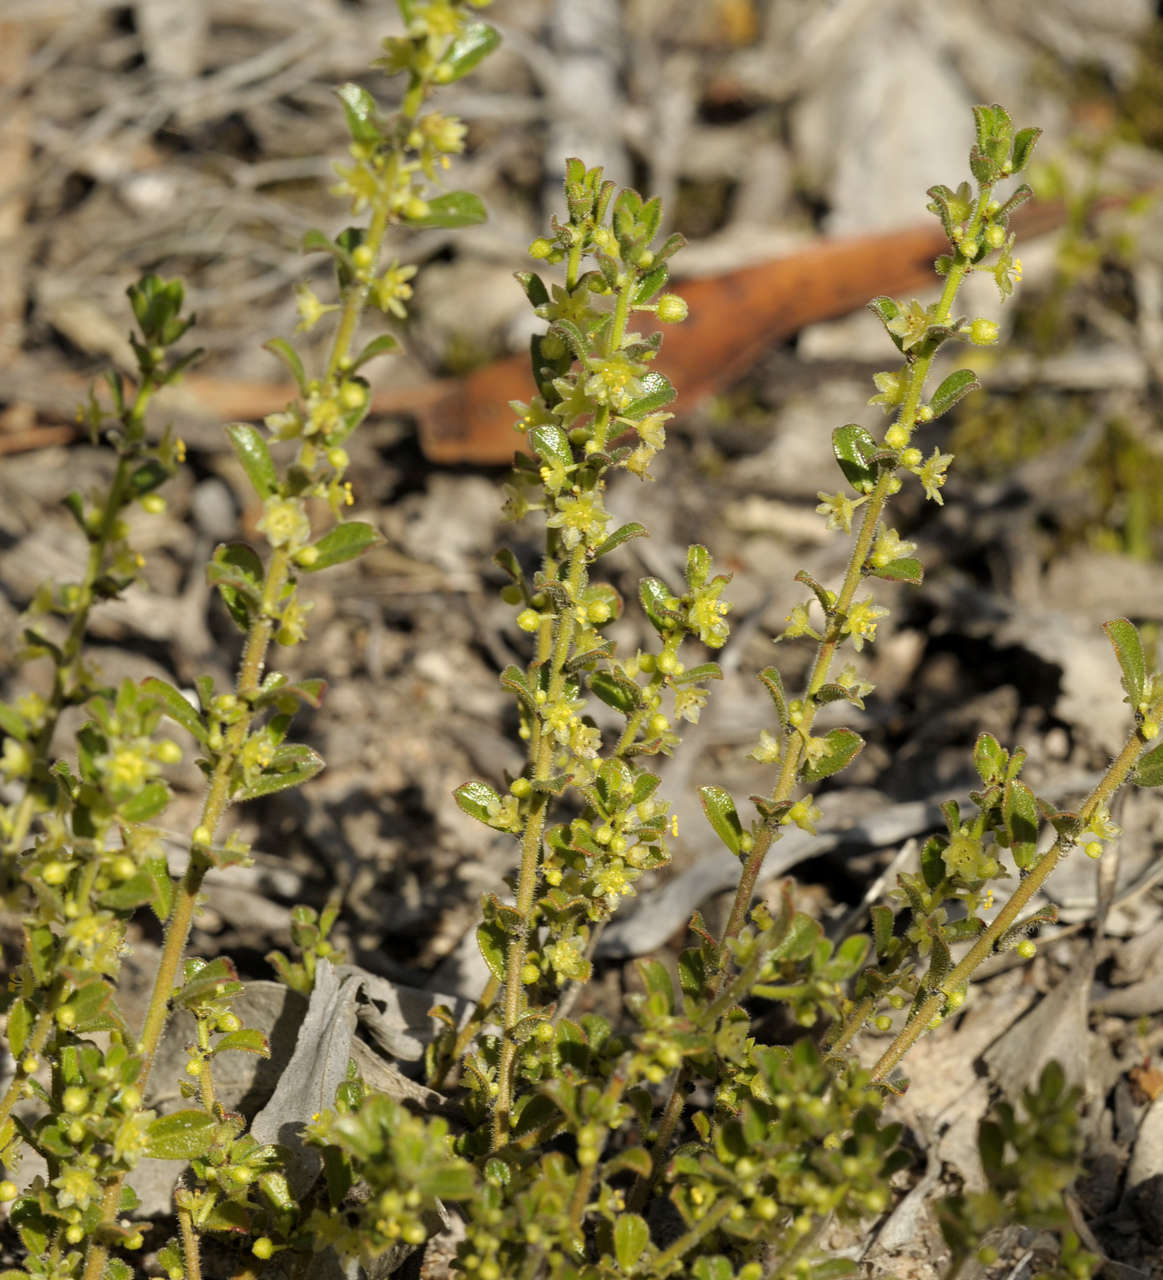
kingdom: Plantae
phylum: Tracheophyta
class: Magnoliopsida
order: Malpighiales
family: Phyllanthaceae
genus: Phyllanthus
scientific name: Phyllanthus hirtellus
